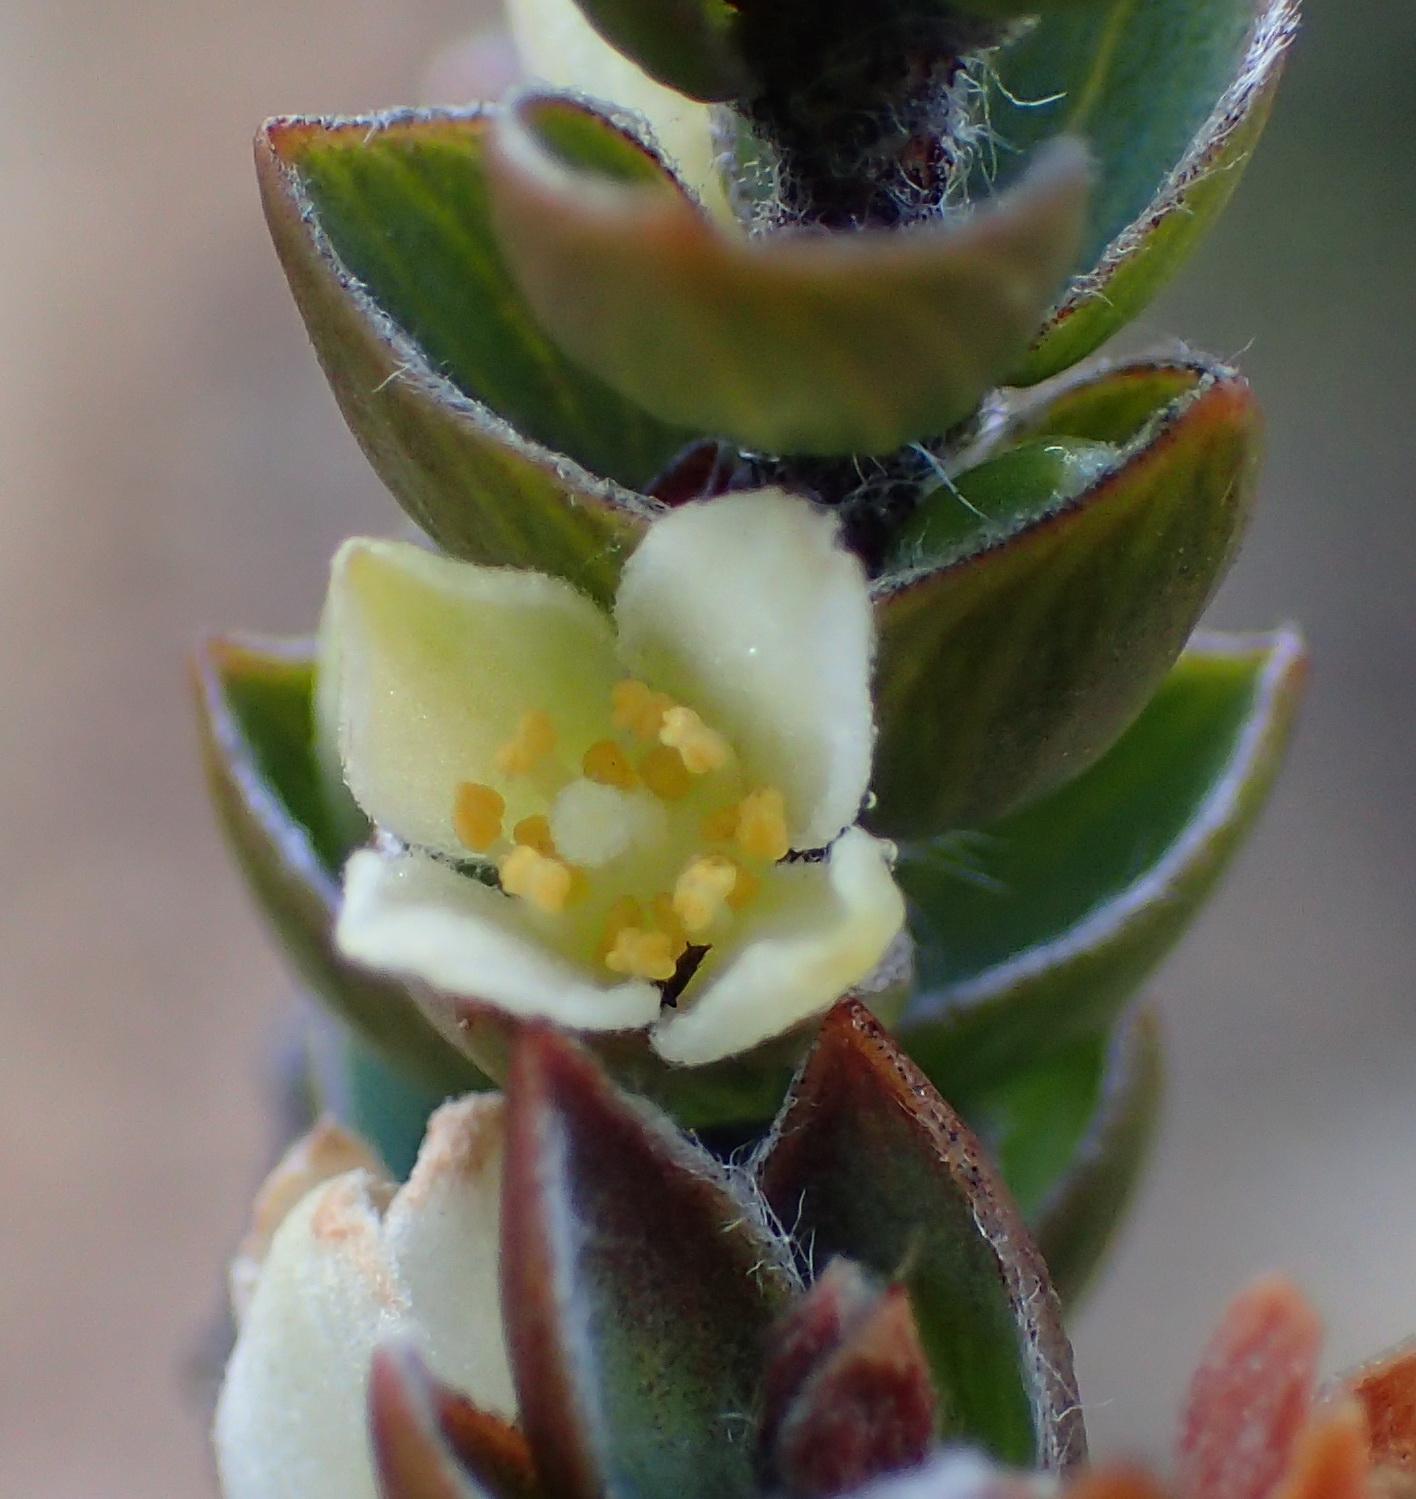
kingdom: Plantae
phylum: Tracheophyta
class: Magnoliopsida
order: Malvales
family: Thymelaeaceae
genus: Lachnaea
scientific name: Lachnaea ruscifolia
